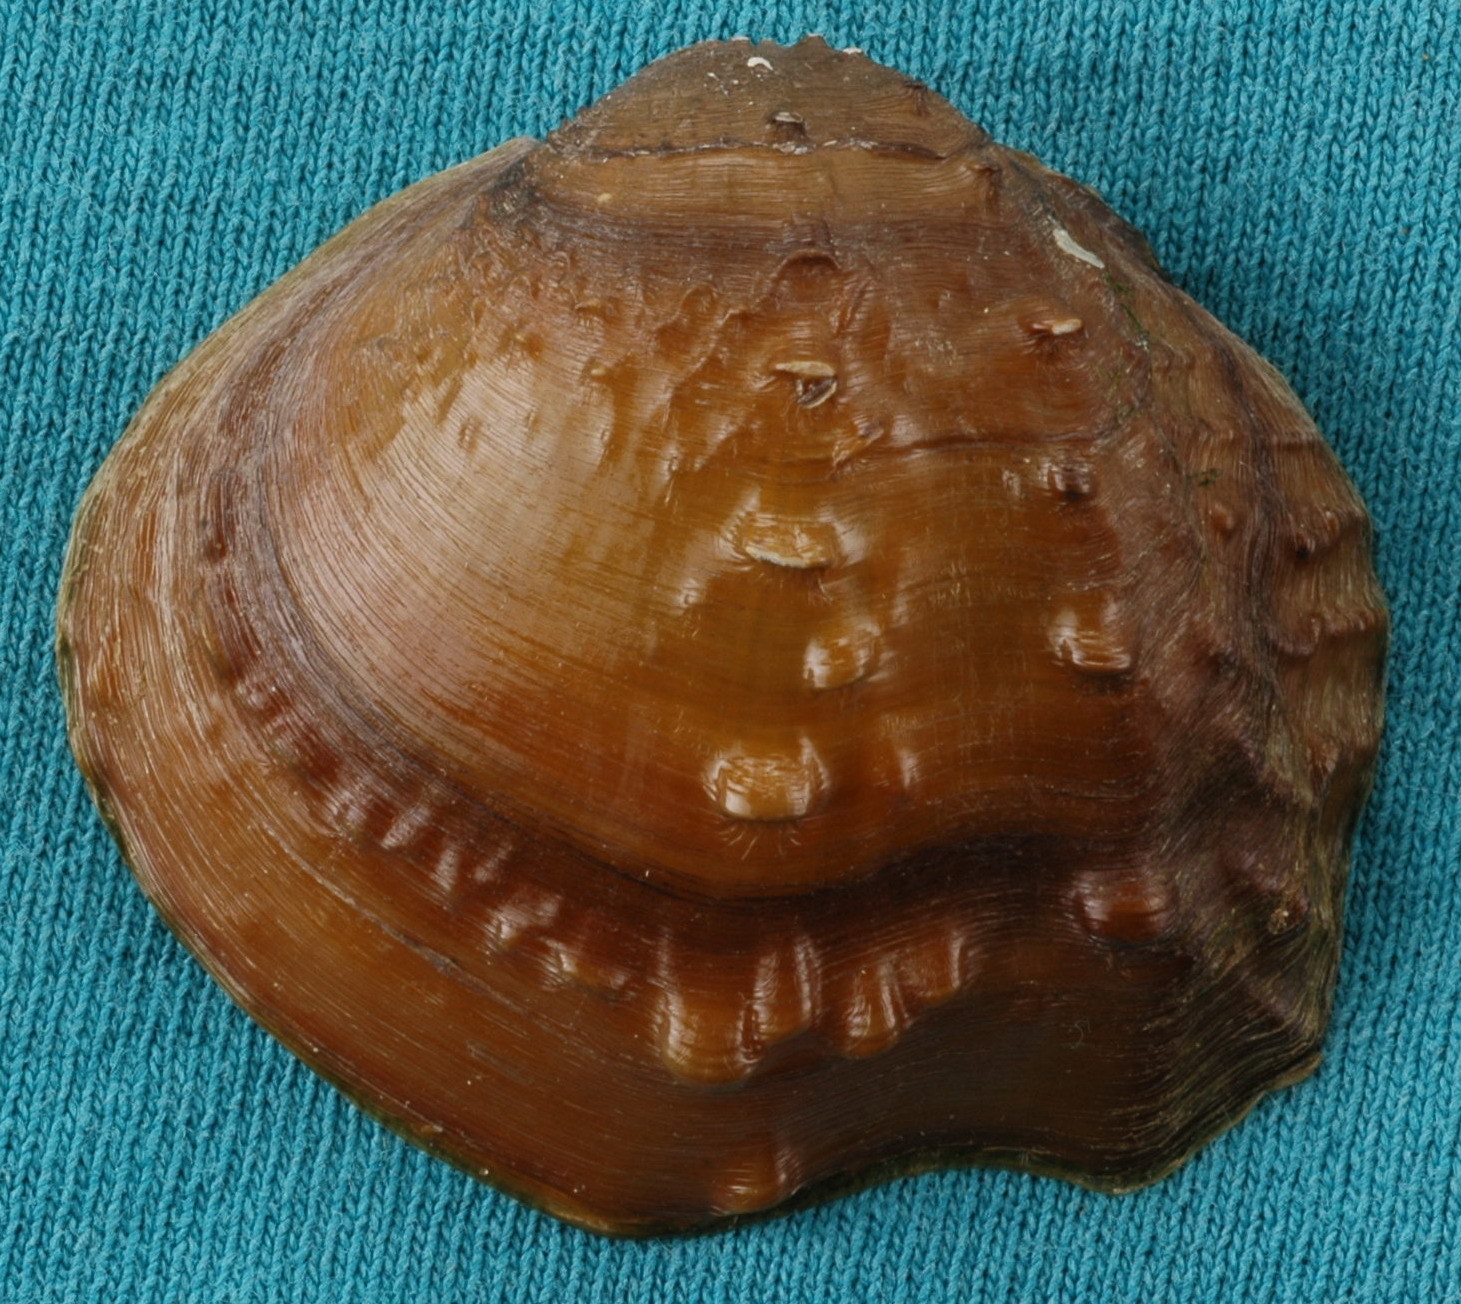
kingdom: Animalia
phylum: Mollusca
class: Bivalvia
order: Unionida
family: Unionidae
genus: Tritogonia
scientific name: Tritogonia nobilis
